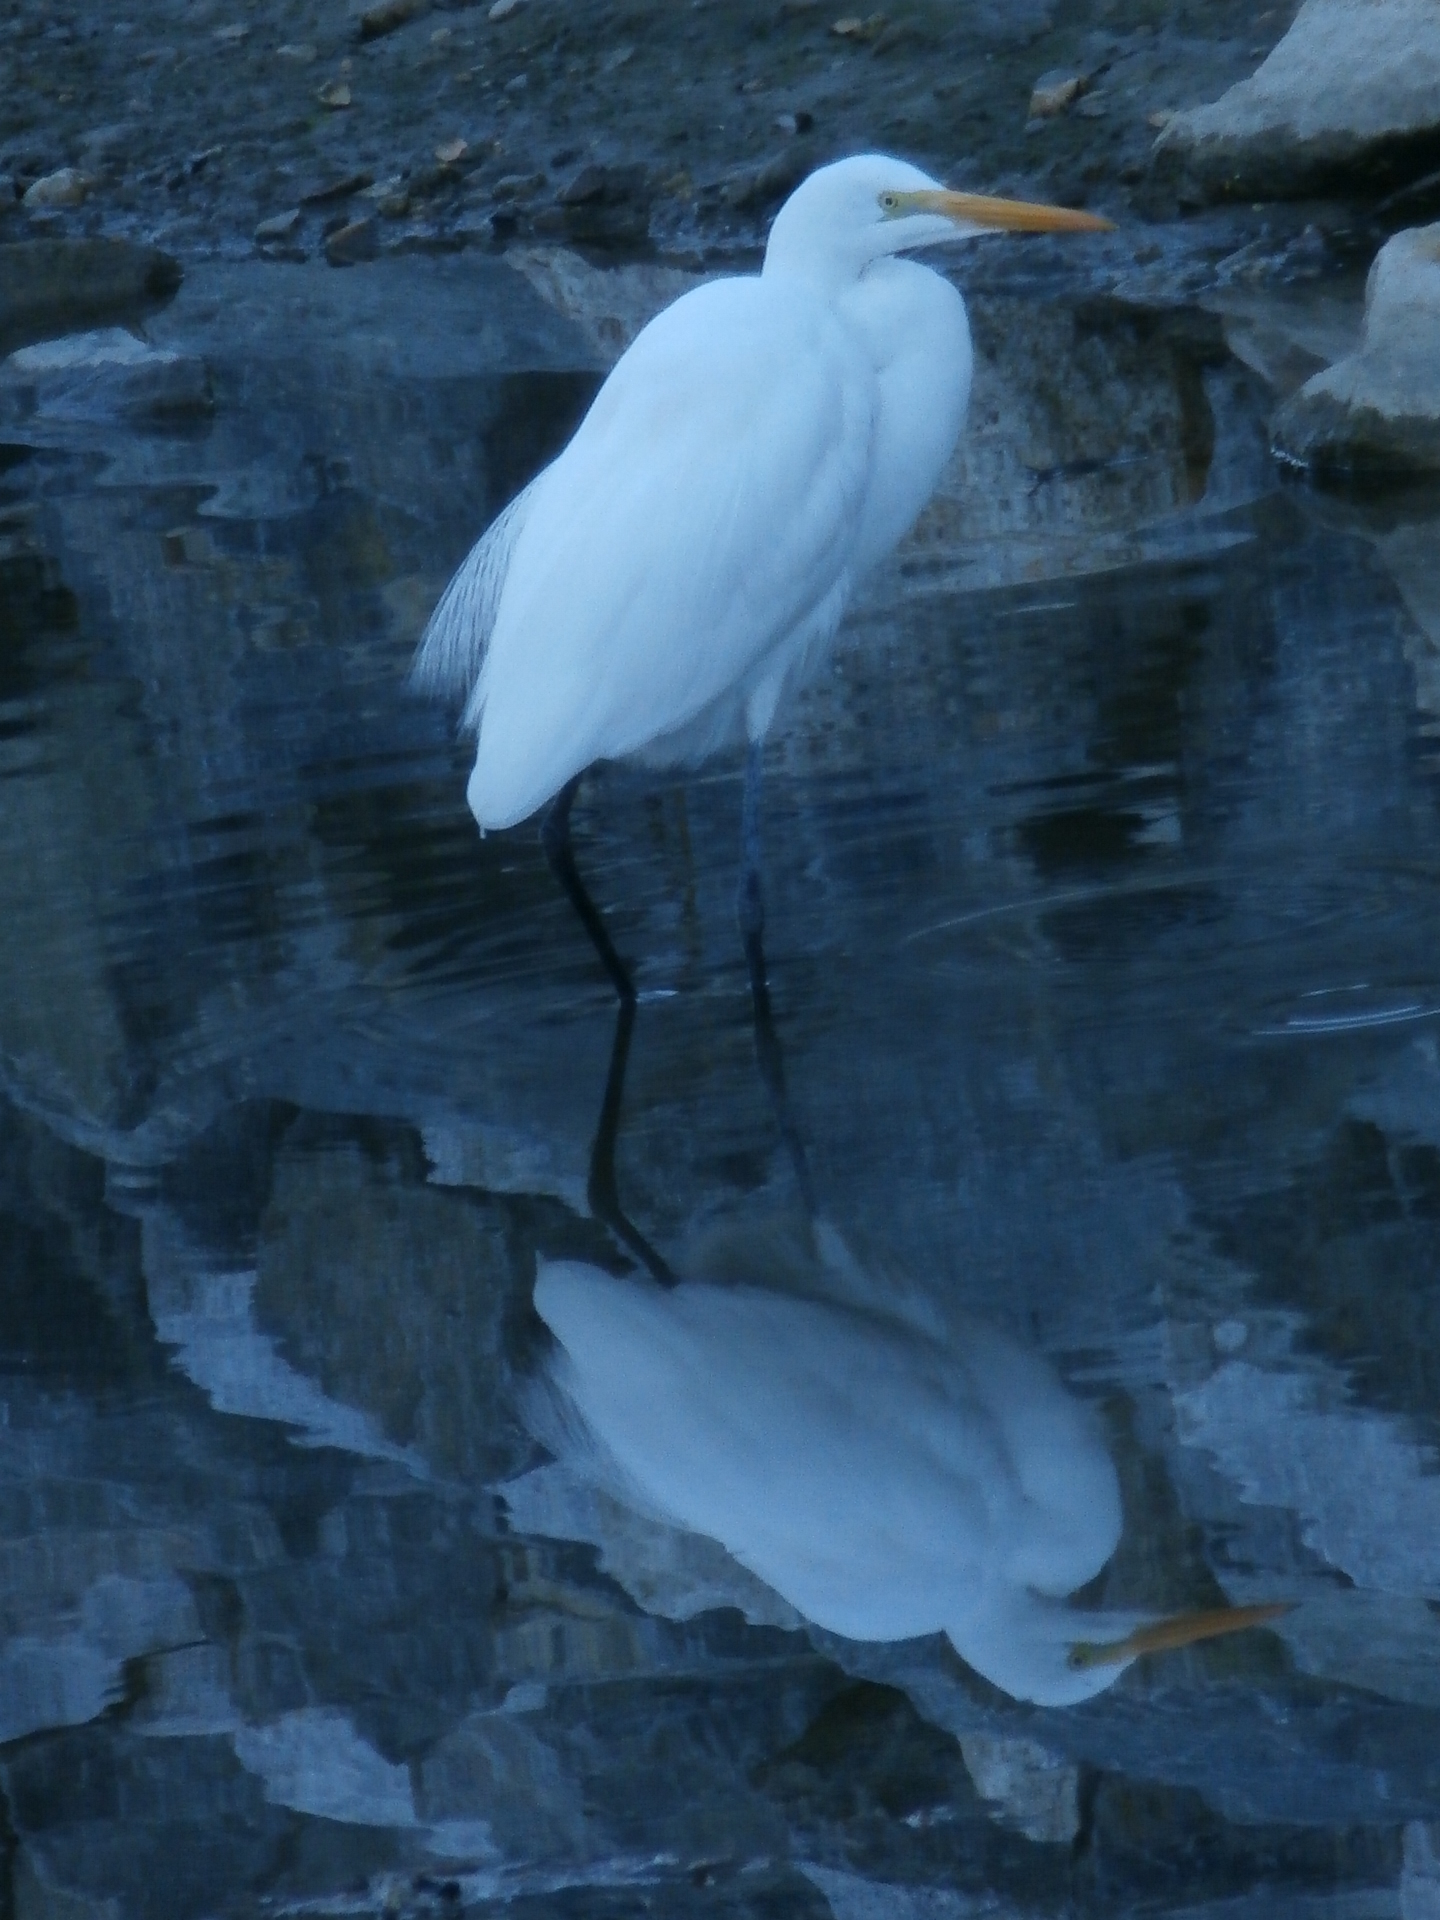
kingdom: Animalia
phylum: Chordata
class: Aves
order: Pelecaniformes
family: Ardeidae
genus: Ardea
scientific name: Ardea alba
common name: Great egret
